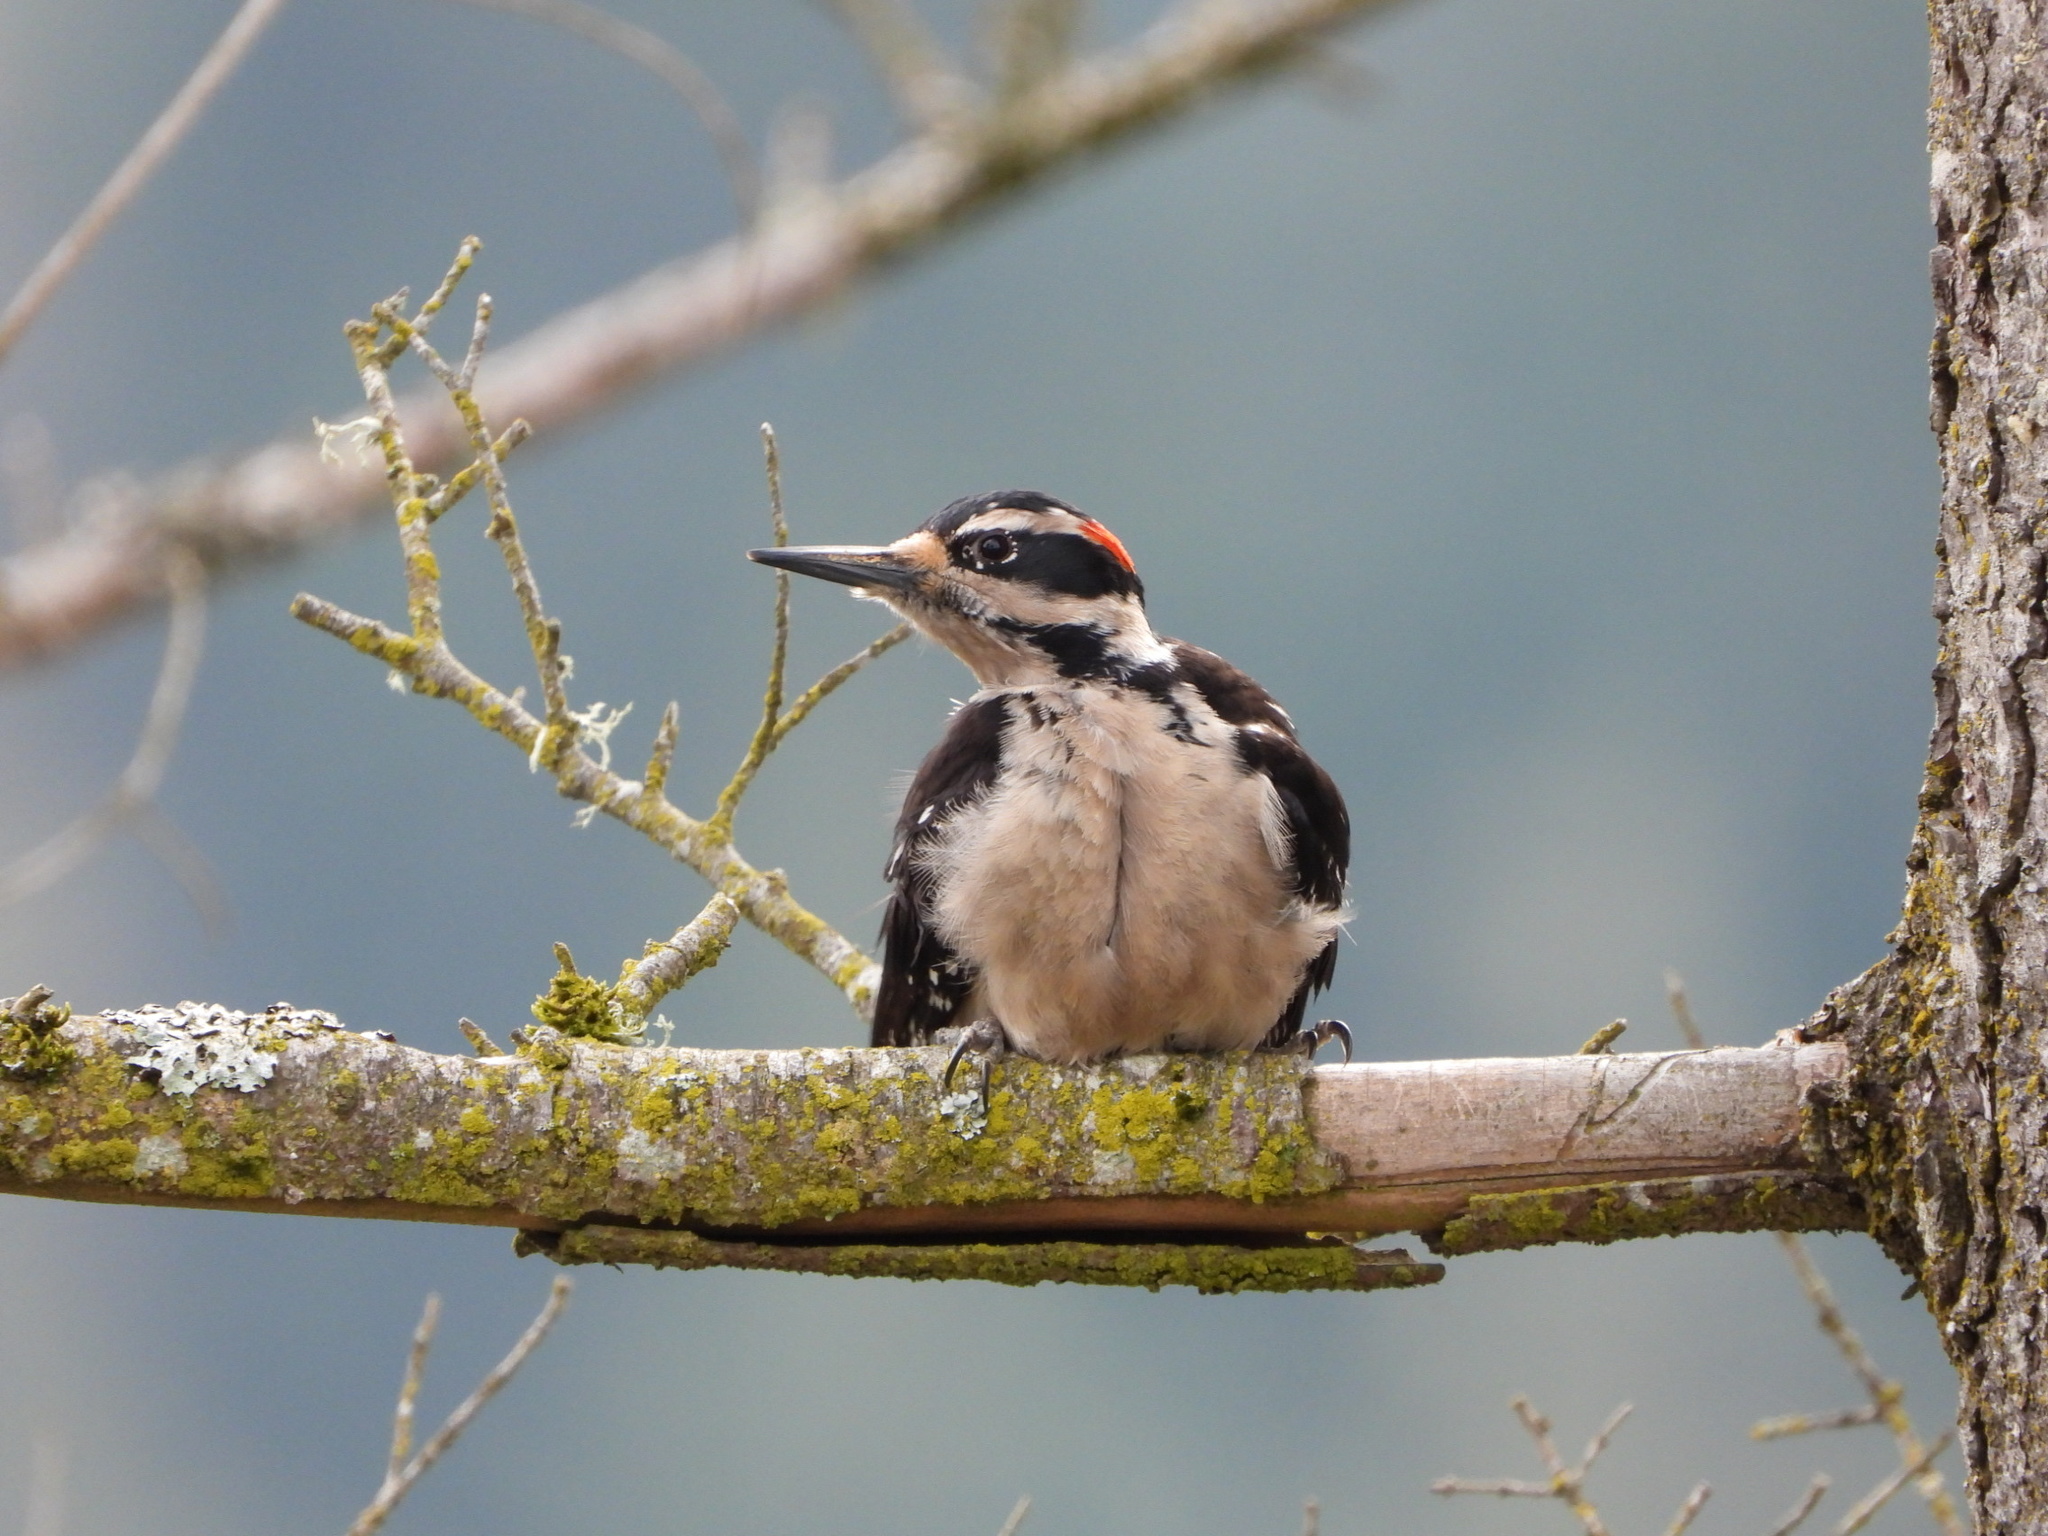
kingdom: Animalia
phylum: Chordata
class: Aves
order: Piciformes
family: Picidae
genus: Leuconotopicus
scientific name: Leuconotopicus villosus
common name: Hairy woodpecker
